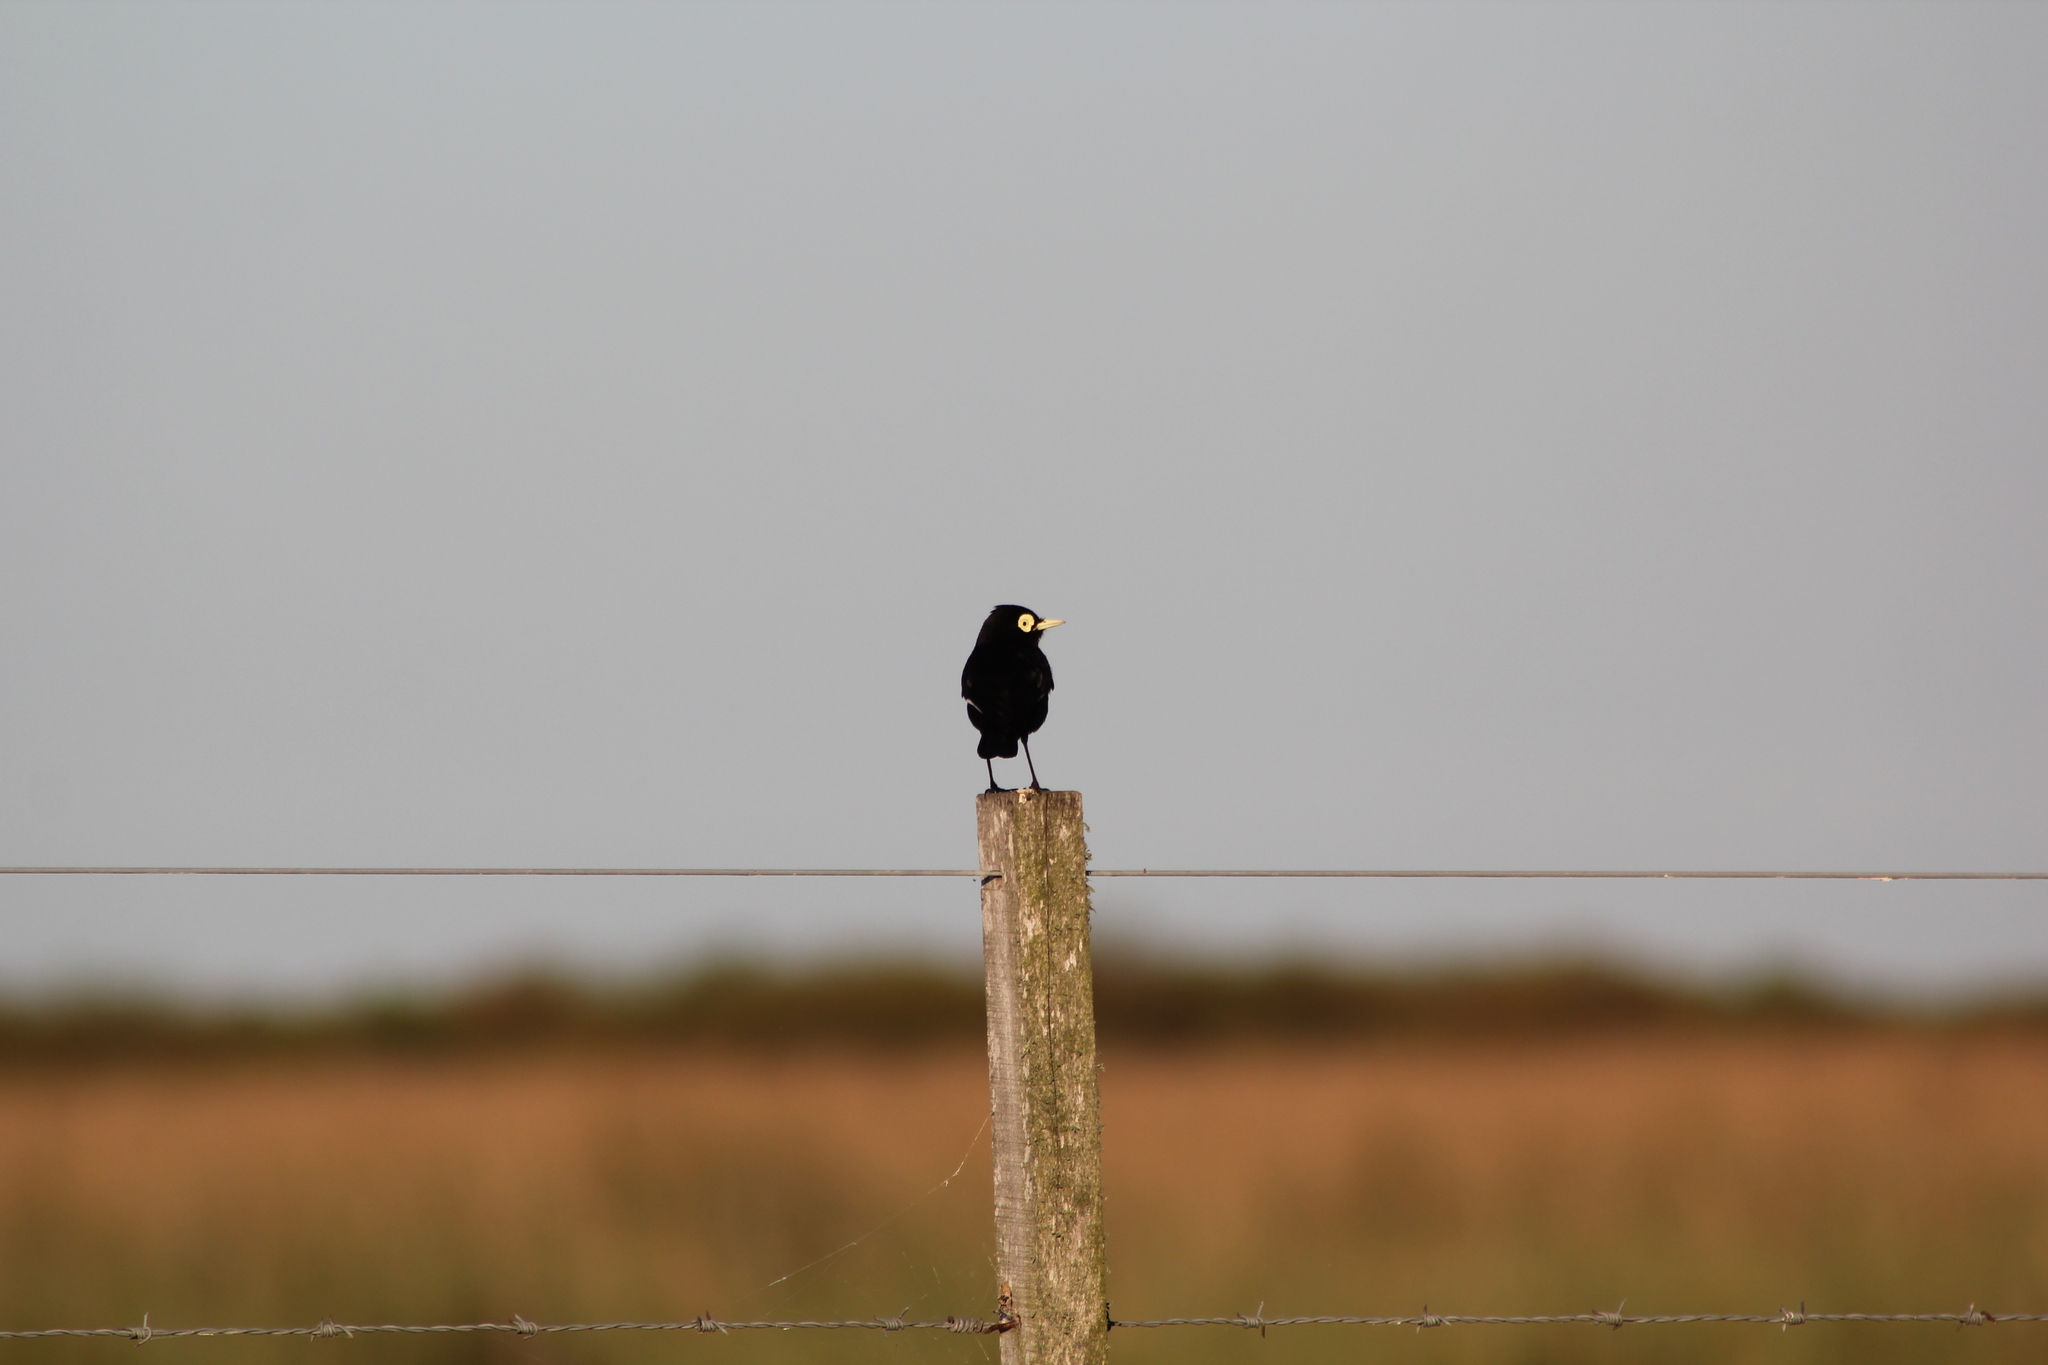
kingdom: Animalia
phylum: Chordata
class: Aves
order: Passeriformes
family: Tyrannidae
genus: Hymenops
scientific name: Hymenops perspicillatus
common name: Spectacled tyrant
